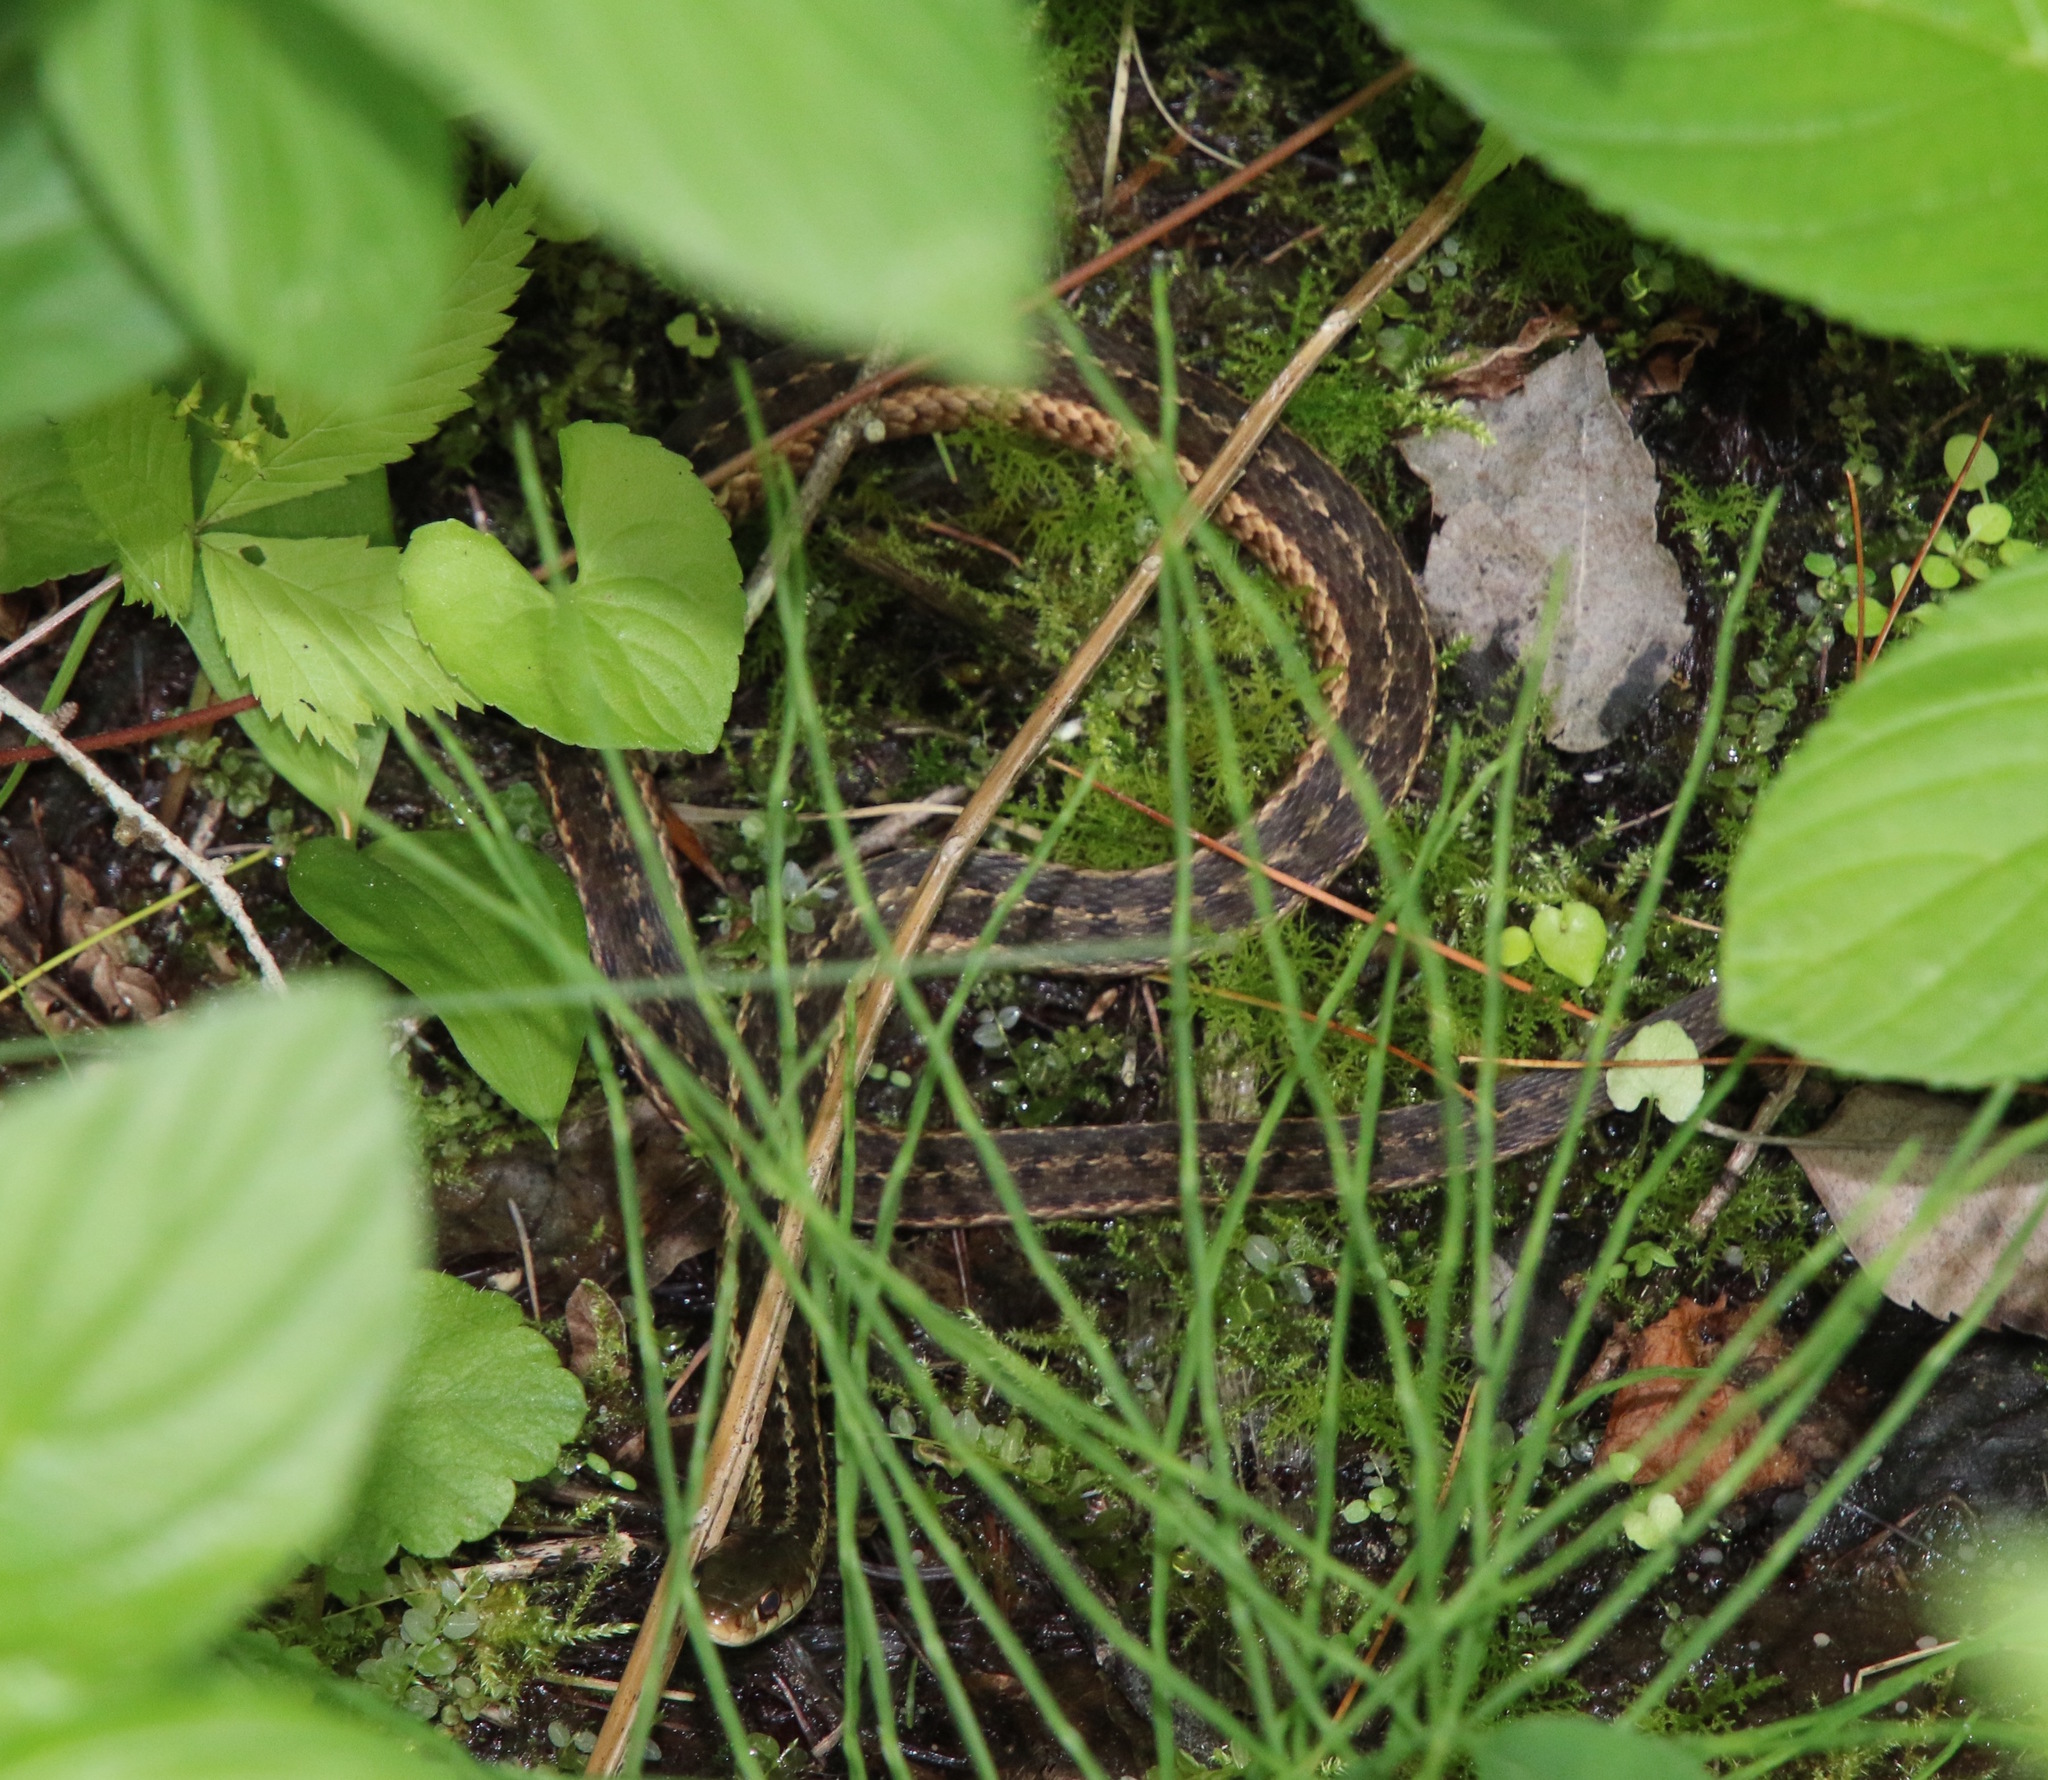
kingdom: Animalia
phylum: Chordata
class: Squamata
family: Colubridae
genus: Thamnophis
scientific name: Thamnophis sirtalis
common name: Common garter snake
